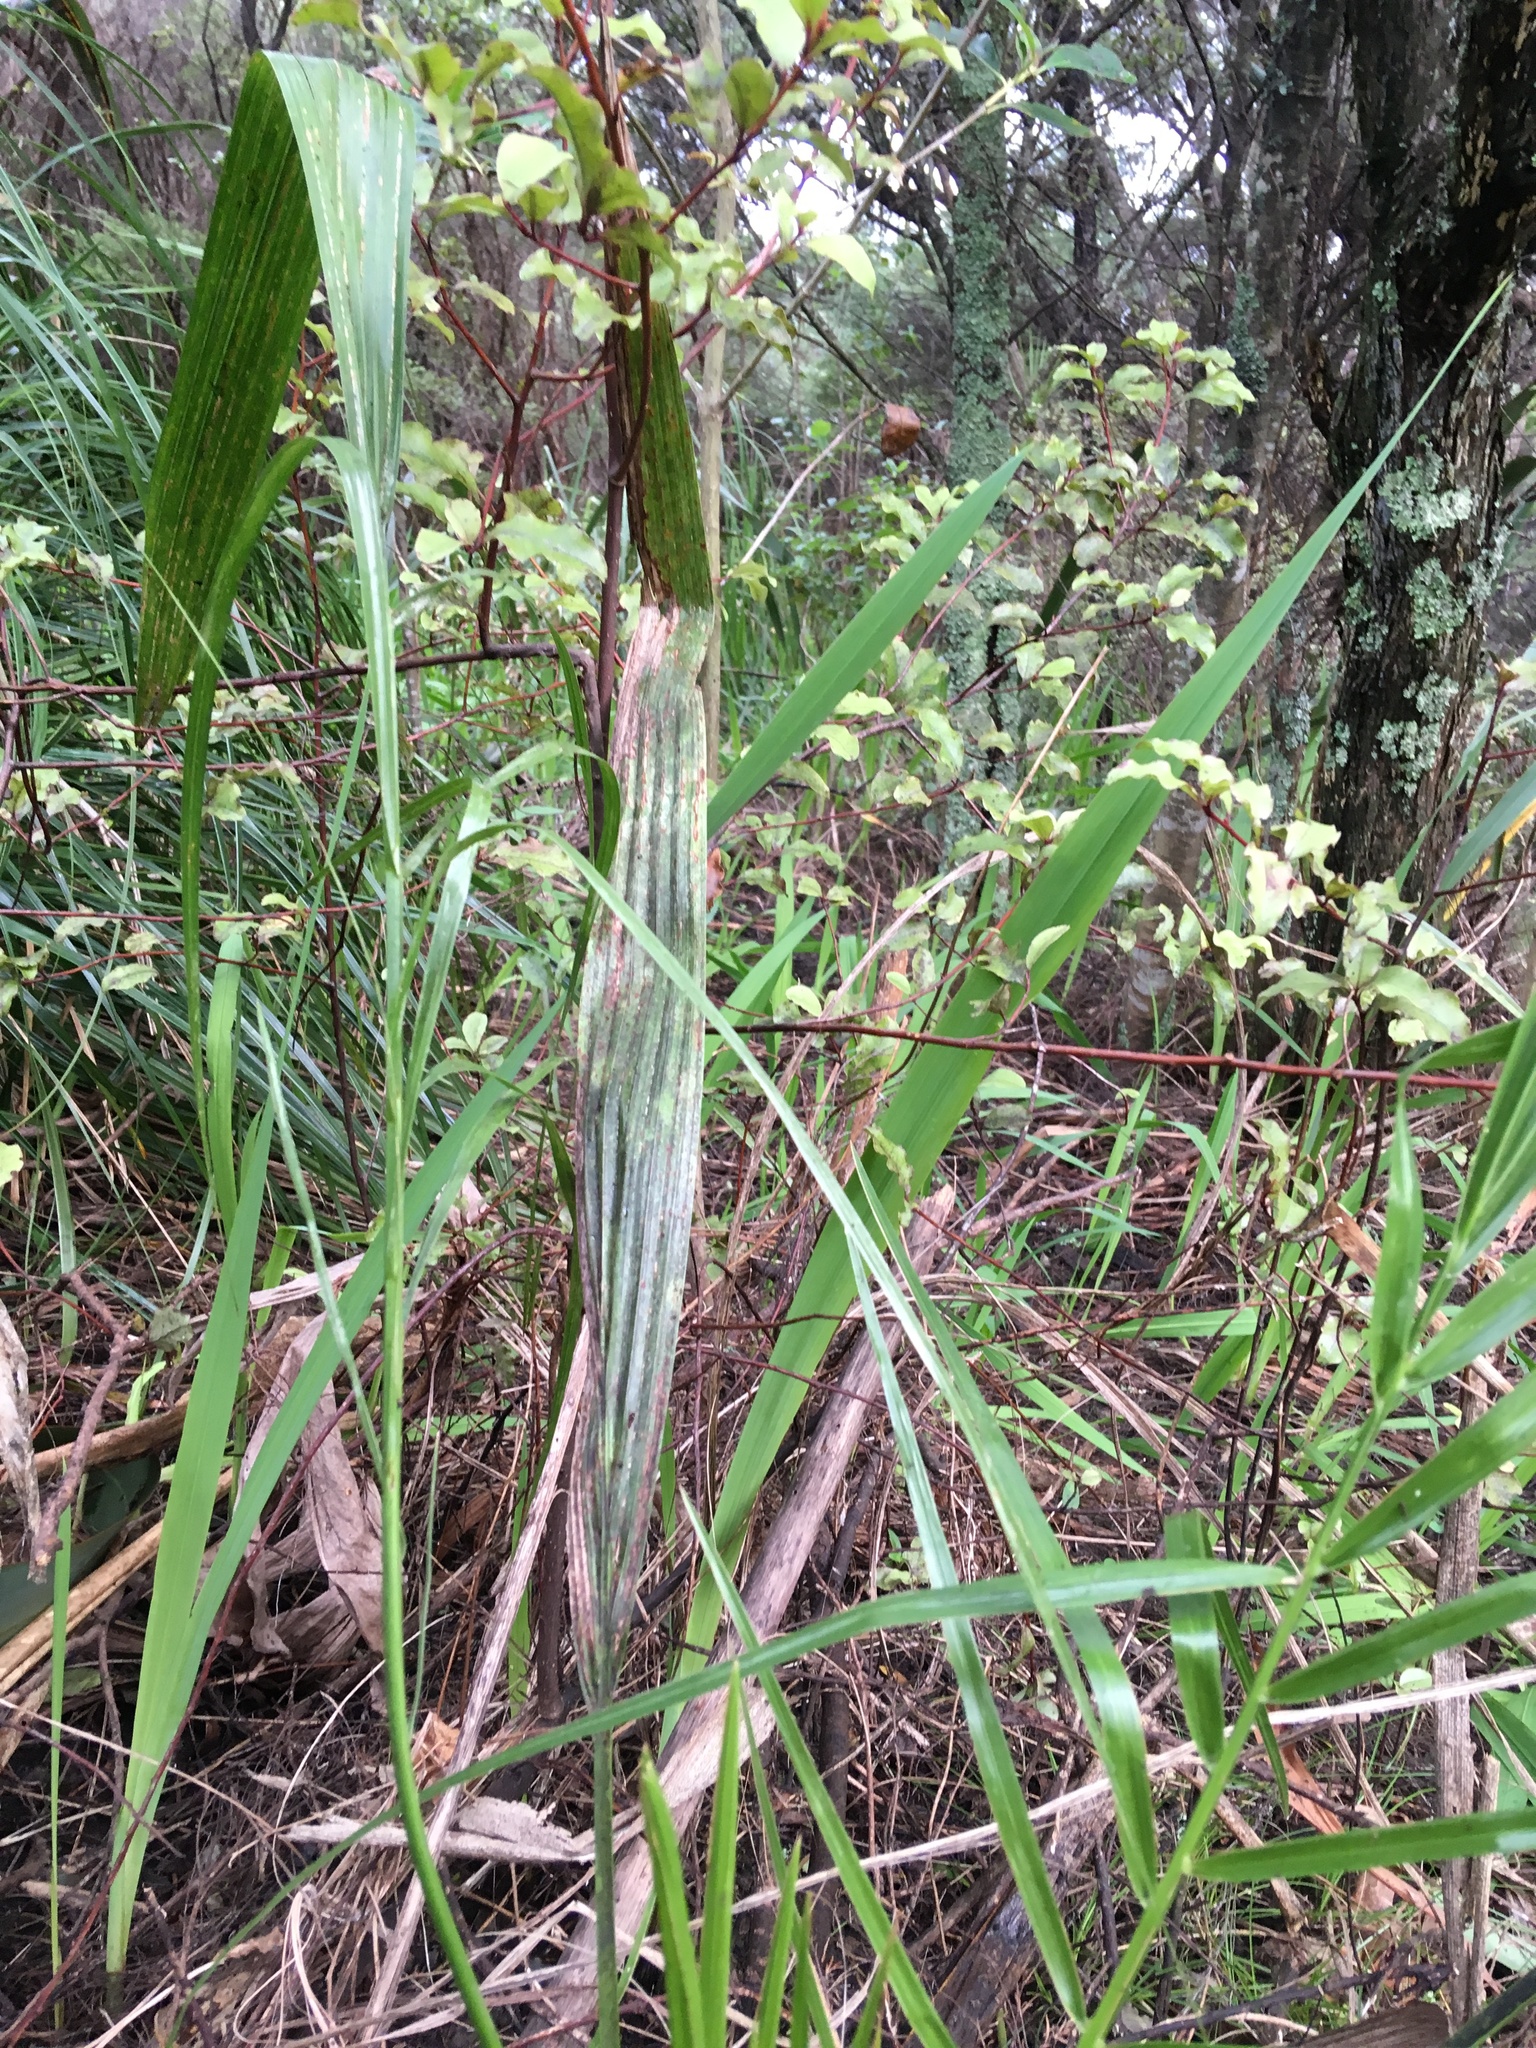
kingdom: Plantae
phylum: Tracheophyta
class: Liliopsida
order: Arecales
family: Arecaceae
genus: Phoenix
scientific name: Phoenix canariensis
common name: Canary island date palm
